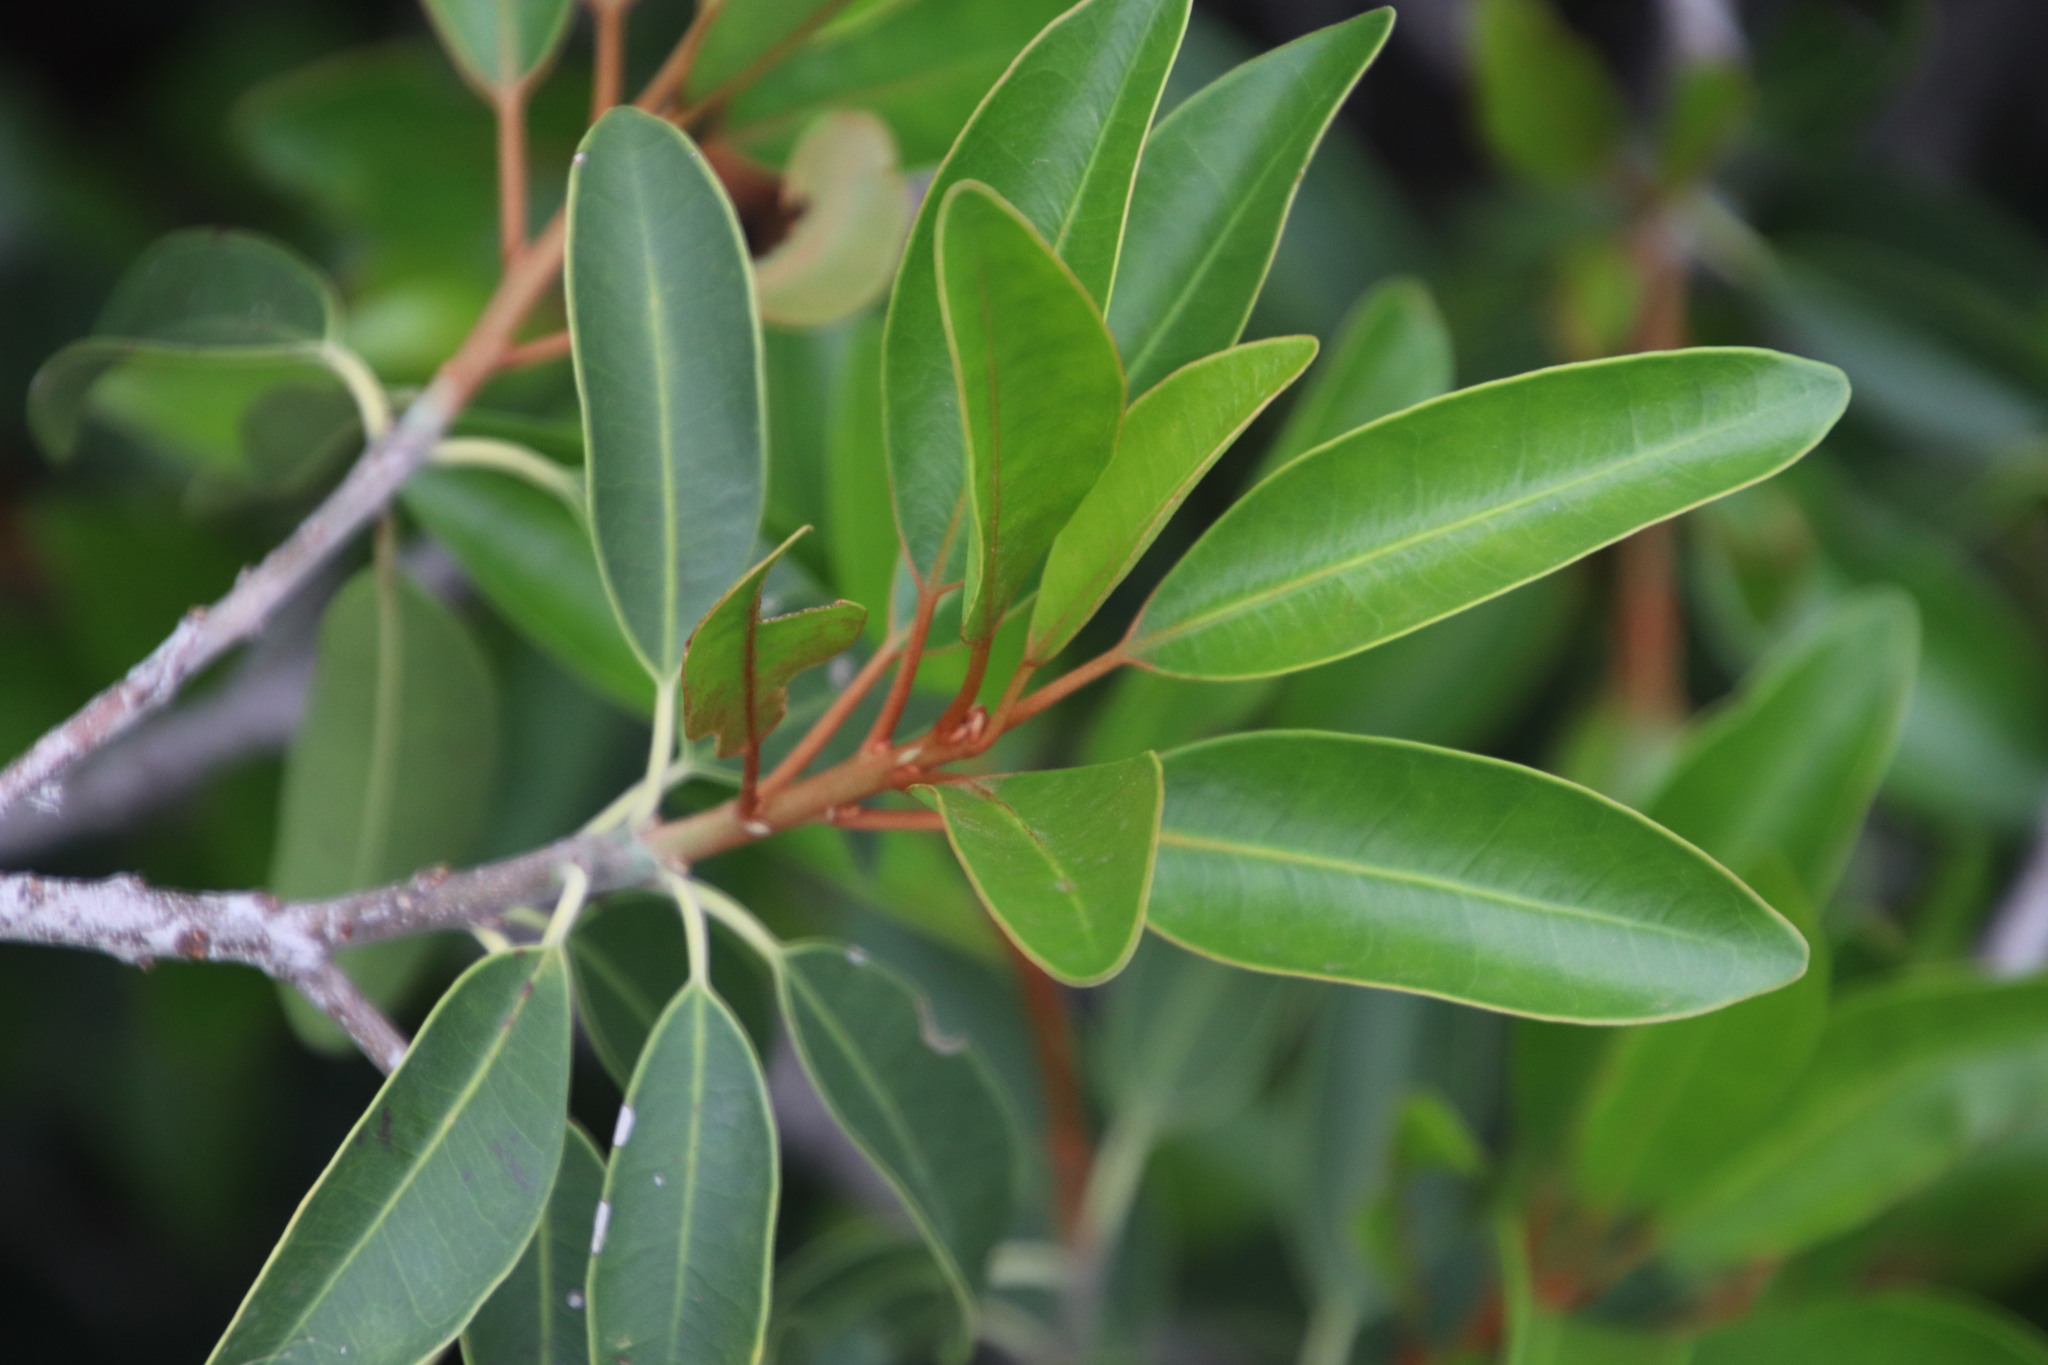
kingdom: Plantae
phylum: Tracheophyta
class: Magnoliopsida
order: Ericales
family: Sapotaceae
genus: Mimusops
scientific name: Mimusops zeyheri
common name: Transvaal red milkwood
